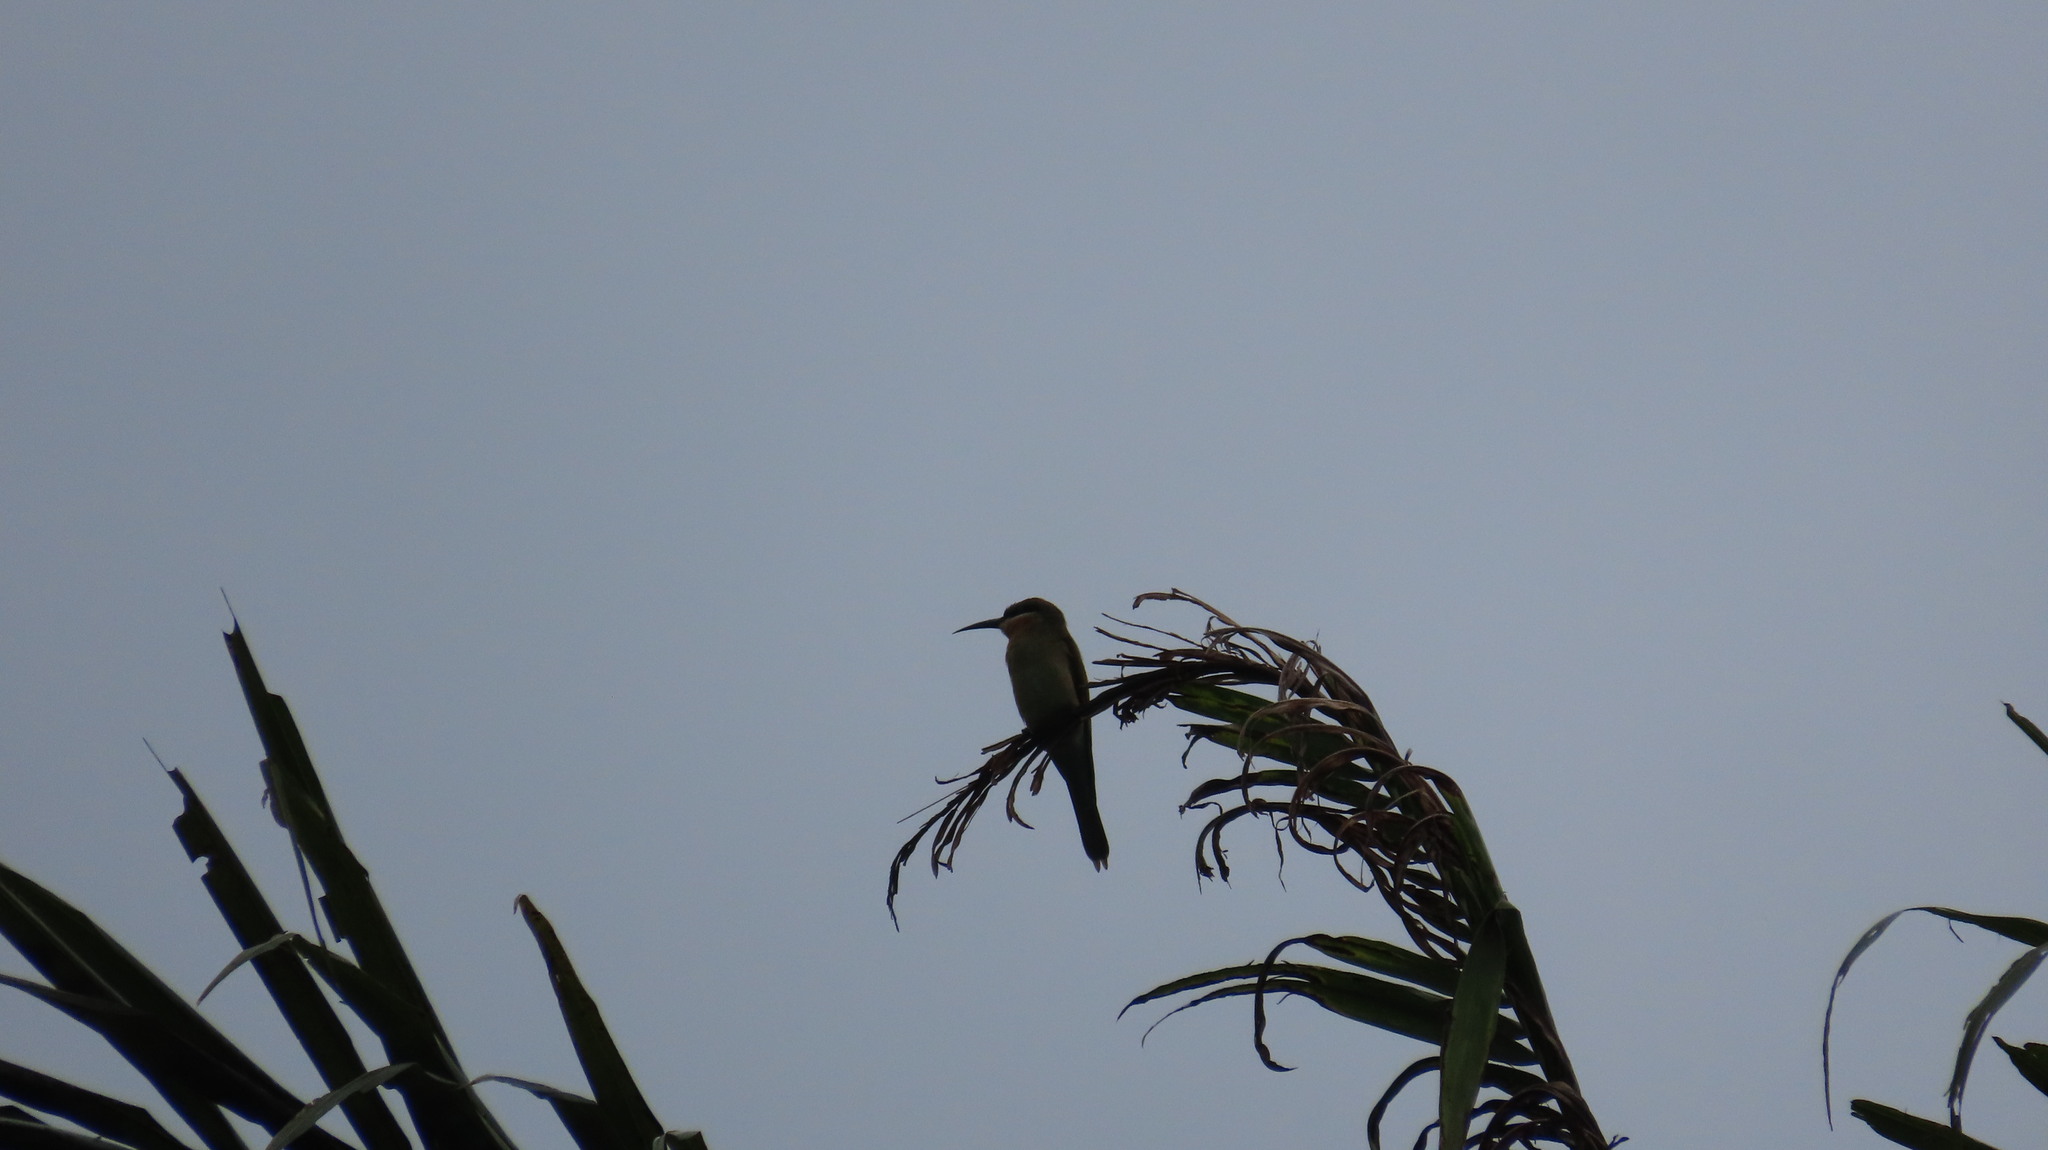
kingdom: Animalia
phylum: Chordata
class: Aves
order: Coraciiformes
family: Meropidae
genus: Merops
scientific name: Merops philippinus
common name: Blue-tailed bee-eater
